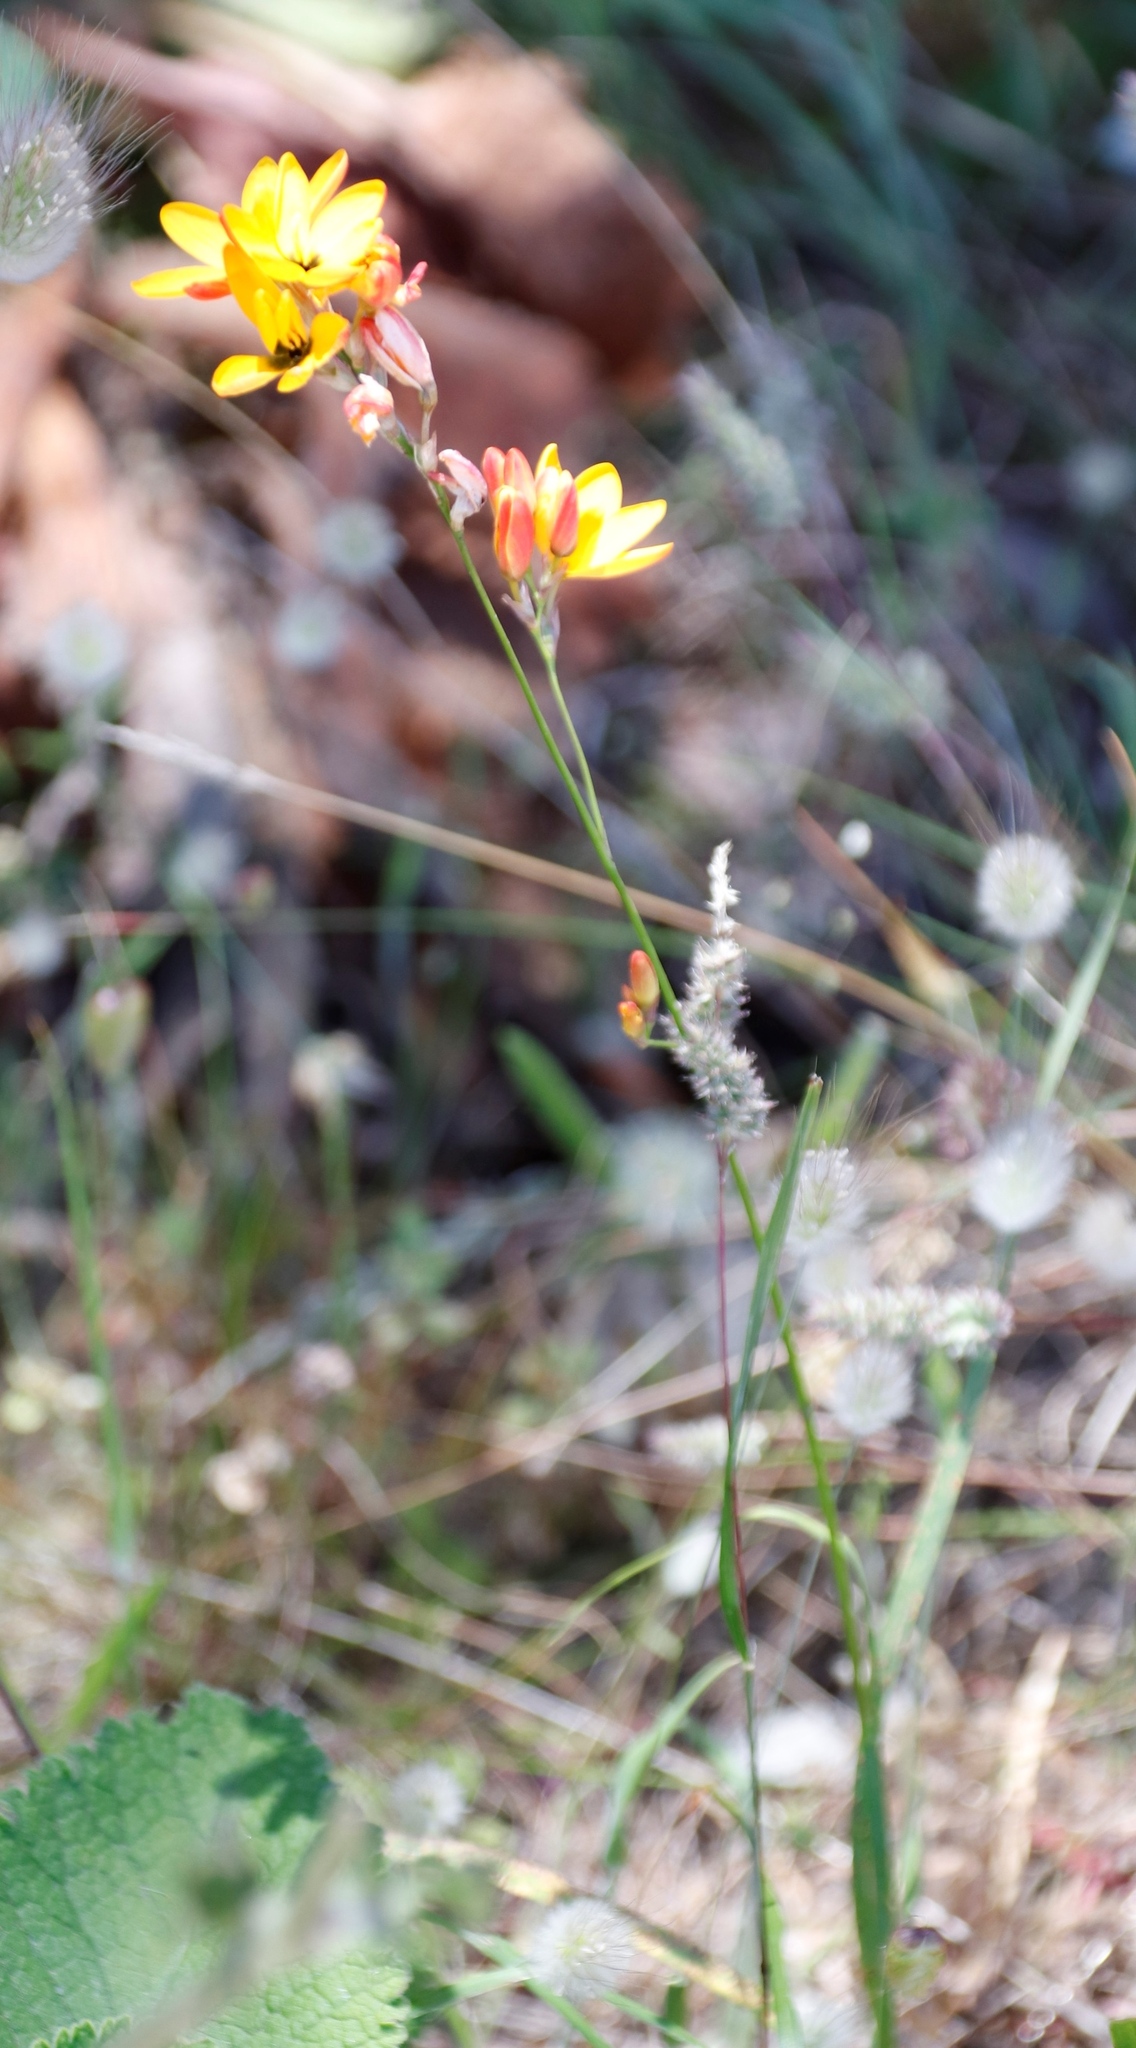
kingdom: Plantae
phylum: Tracheophyta
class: Liliopsida
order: Asparagales
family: Iridaceae
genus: Ixia
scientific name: Ixia dubia
